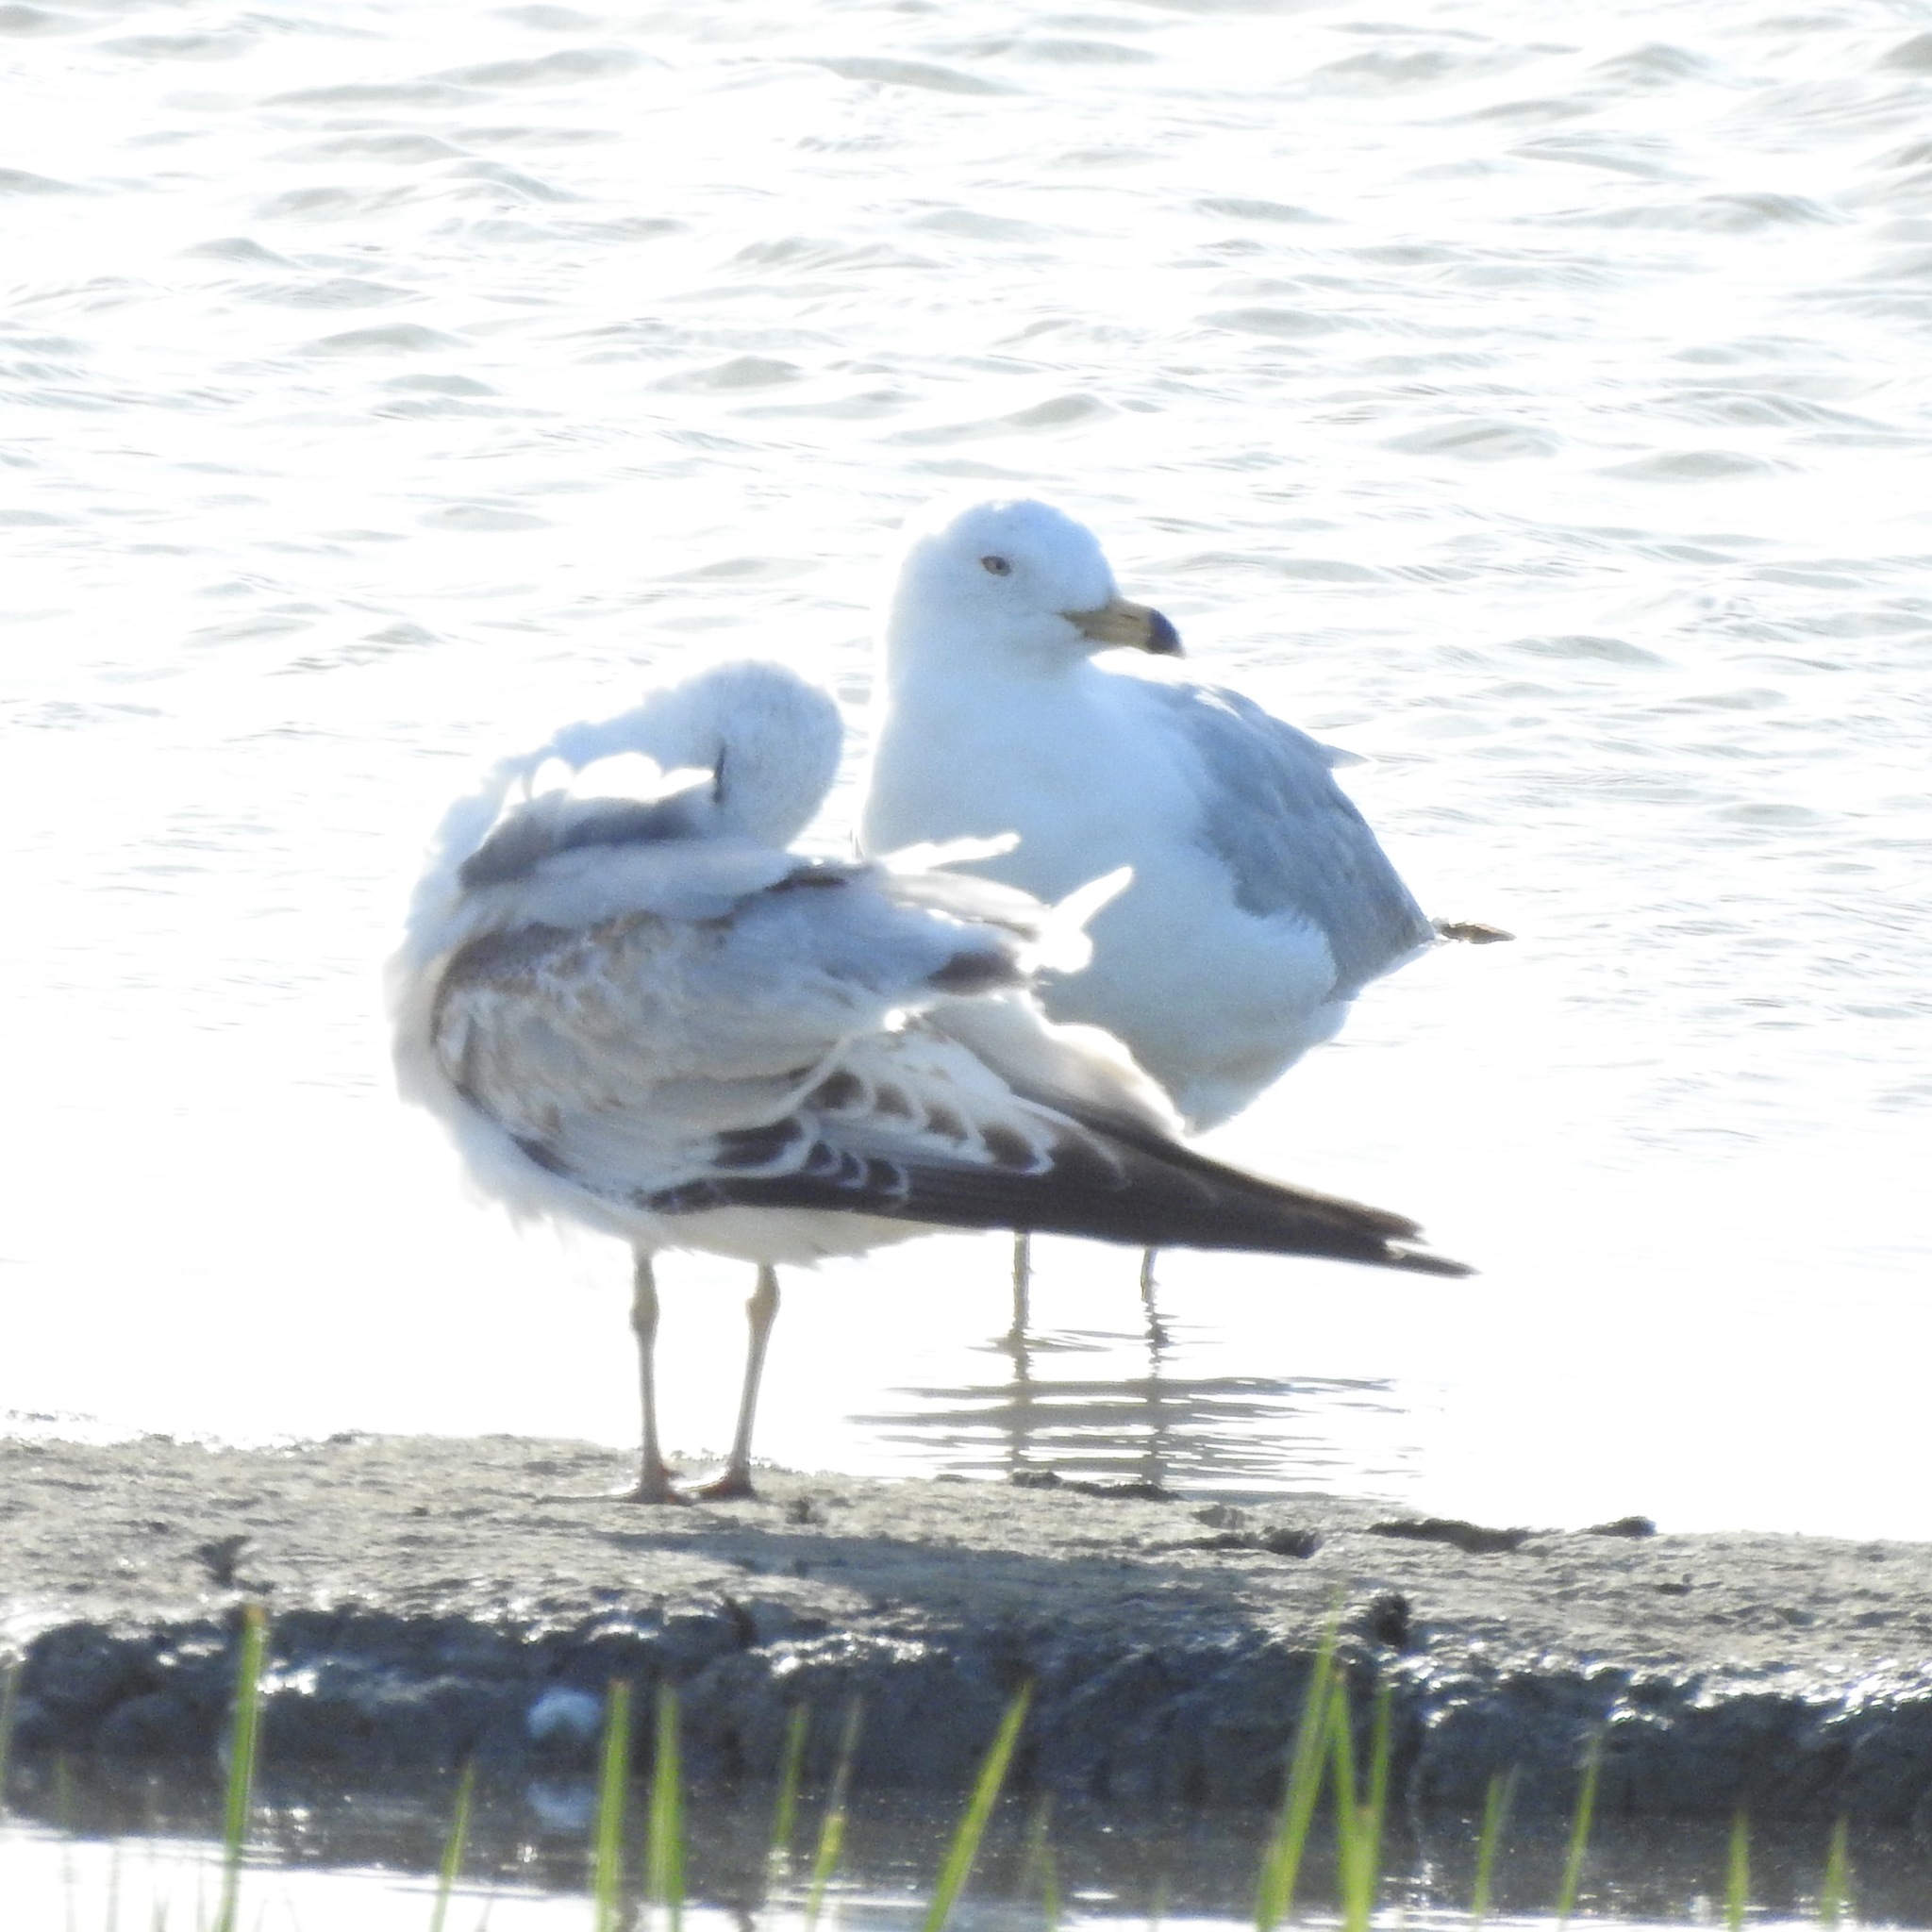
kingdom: Animalia
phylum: Chordata
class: Aves
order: Charadriiformes
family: Laridae
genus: Larus
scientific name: Larus delawarensis
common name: Ring-billed gull
